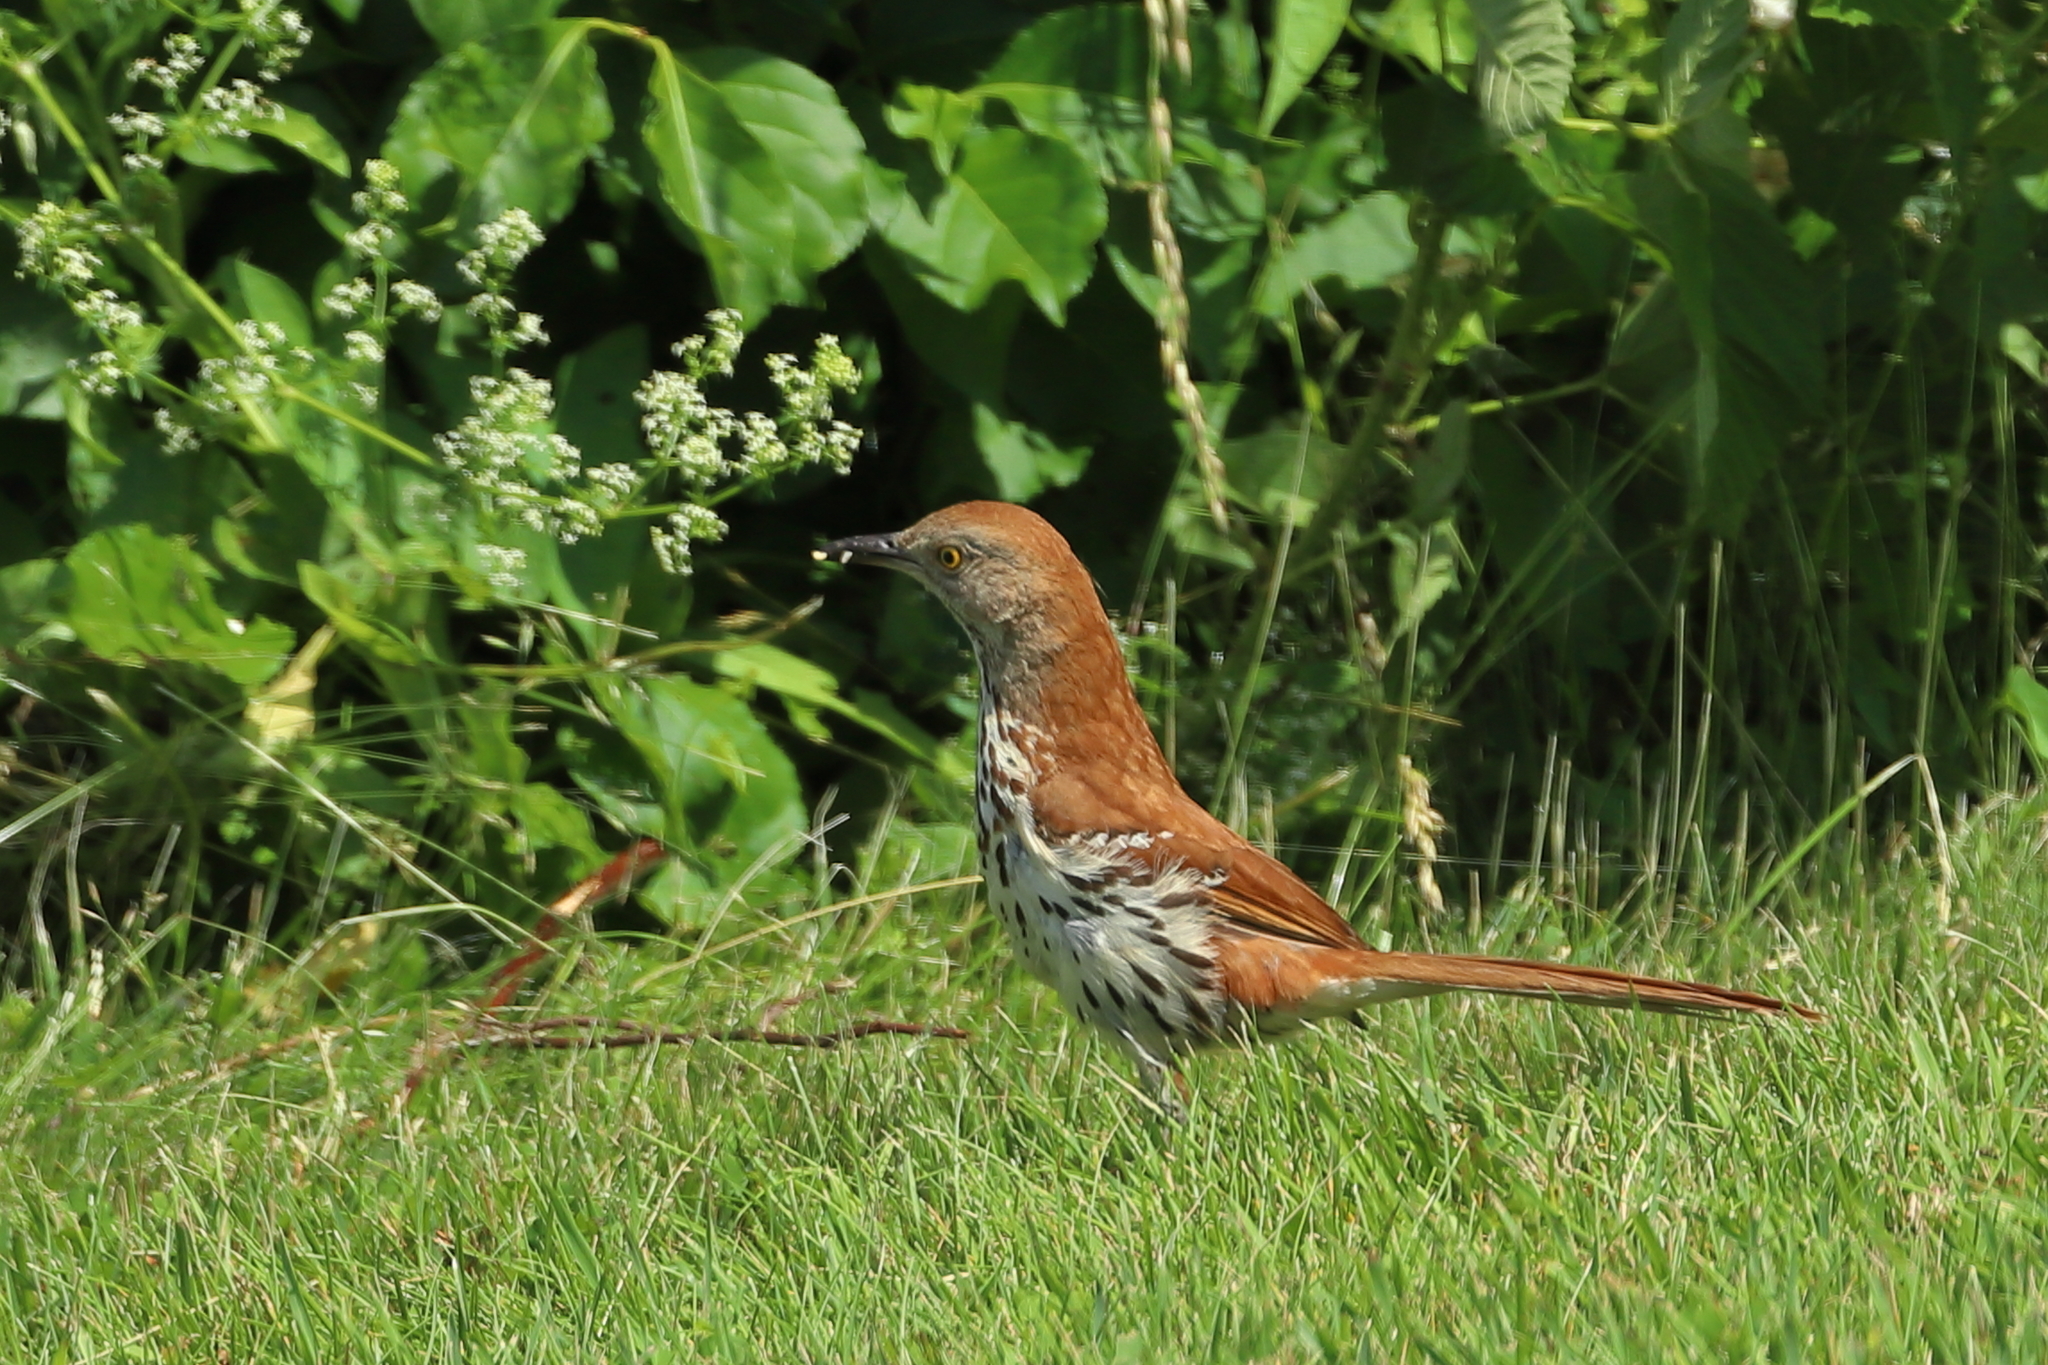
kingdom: Animalia
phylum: Chordata
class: Aves
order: Passeriformes
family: Mimidae
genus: Toxostoma
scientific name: Toxostoma rufum
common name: Brown thrasher
